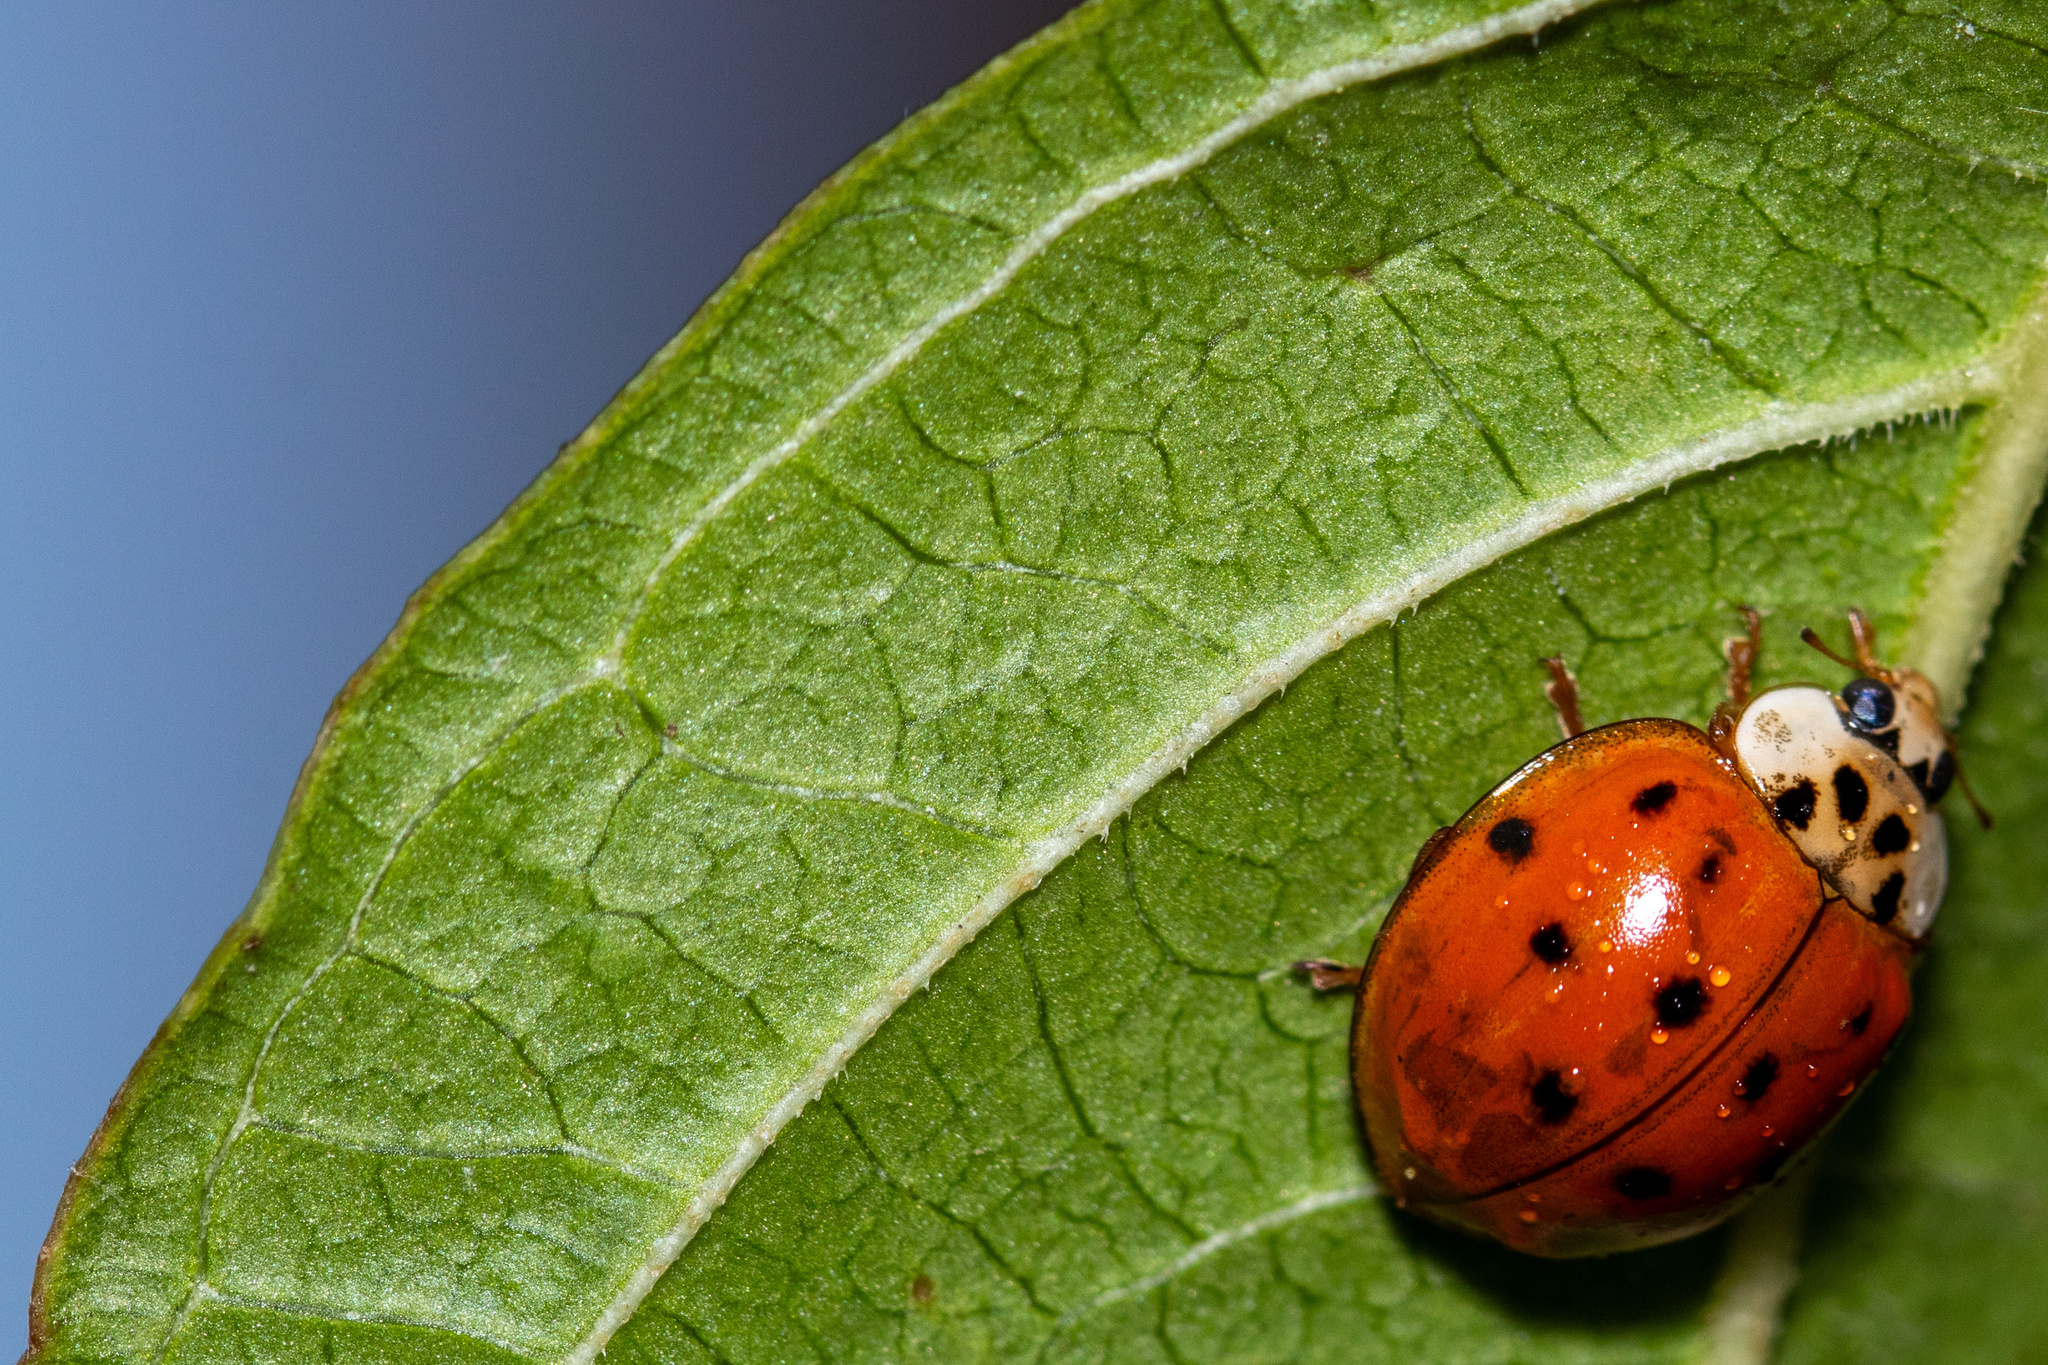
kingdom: Animalia
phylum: Arthropoda
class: Insecta
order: Coleoptera
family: Coccinellidae
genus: Harmonia
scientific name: Harmonia axyridis
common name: Harlequin ladybird
